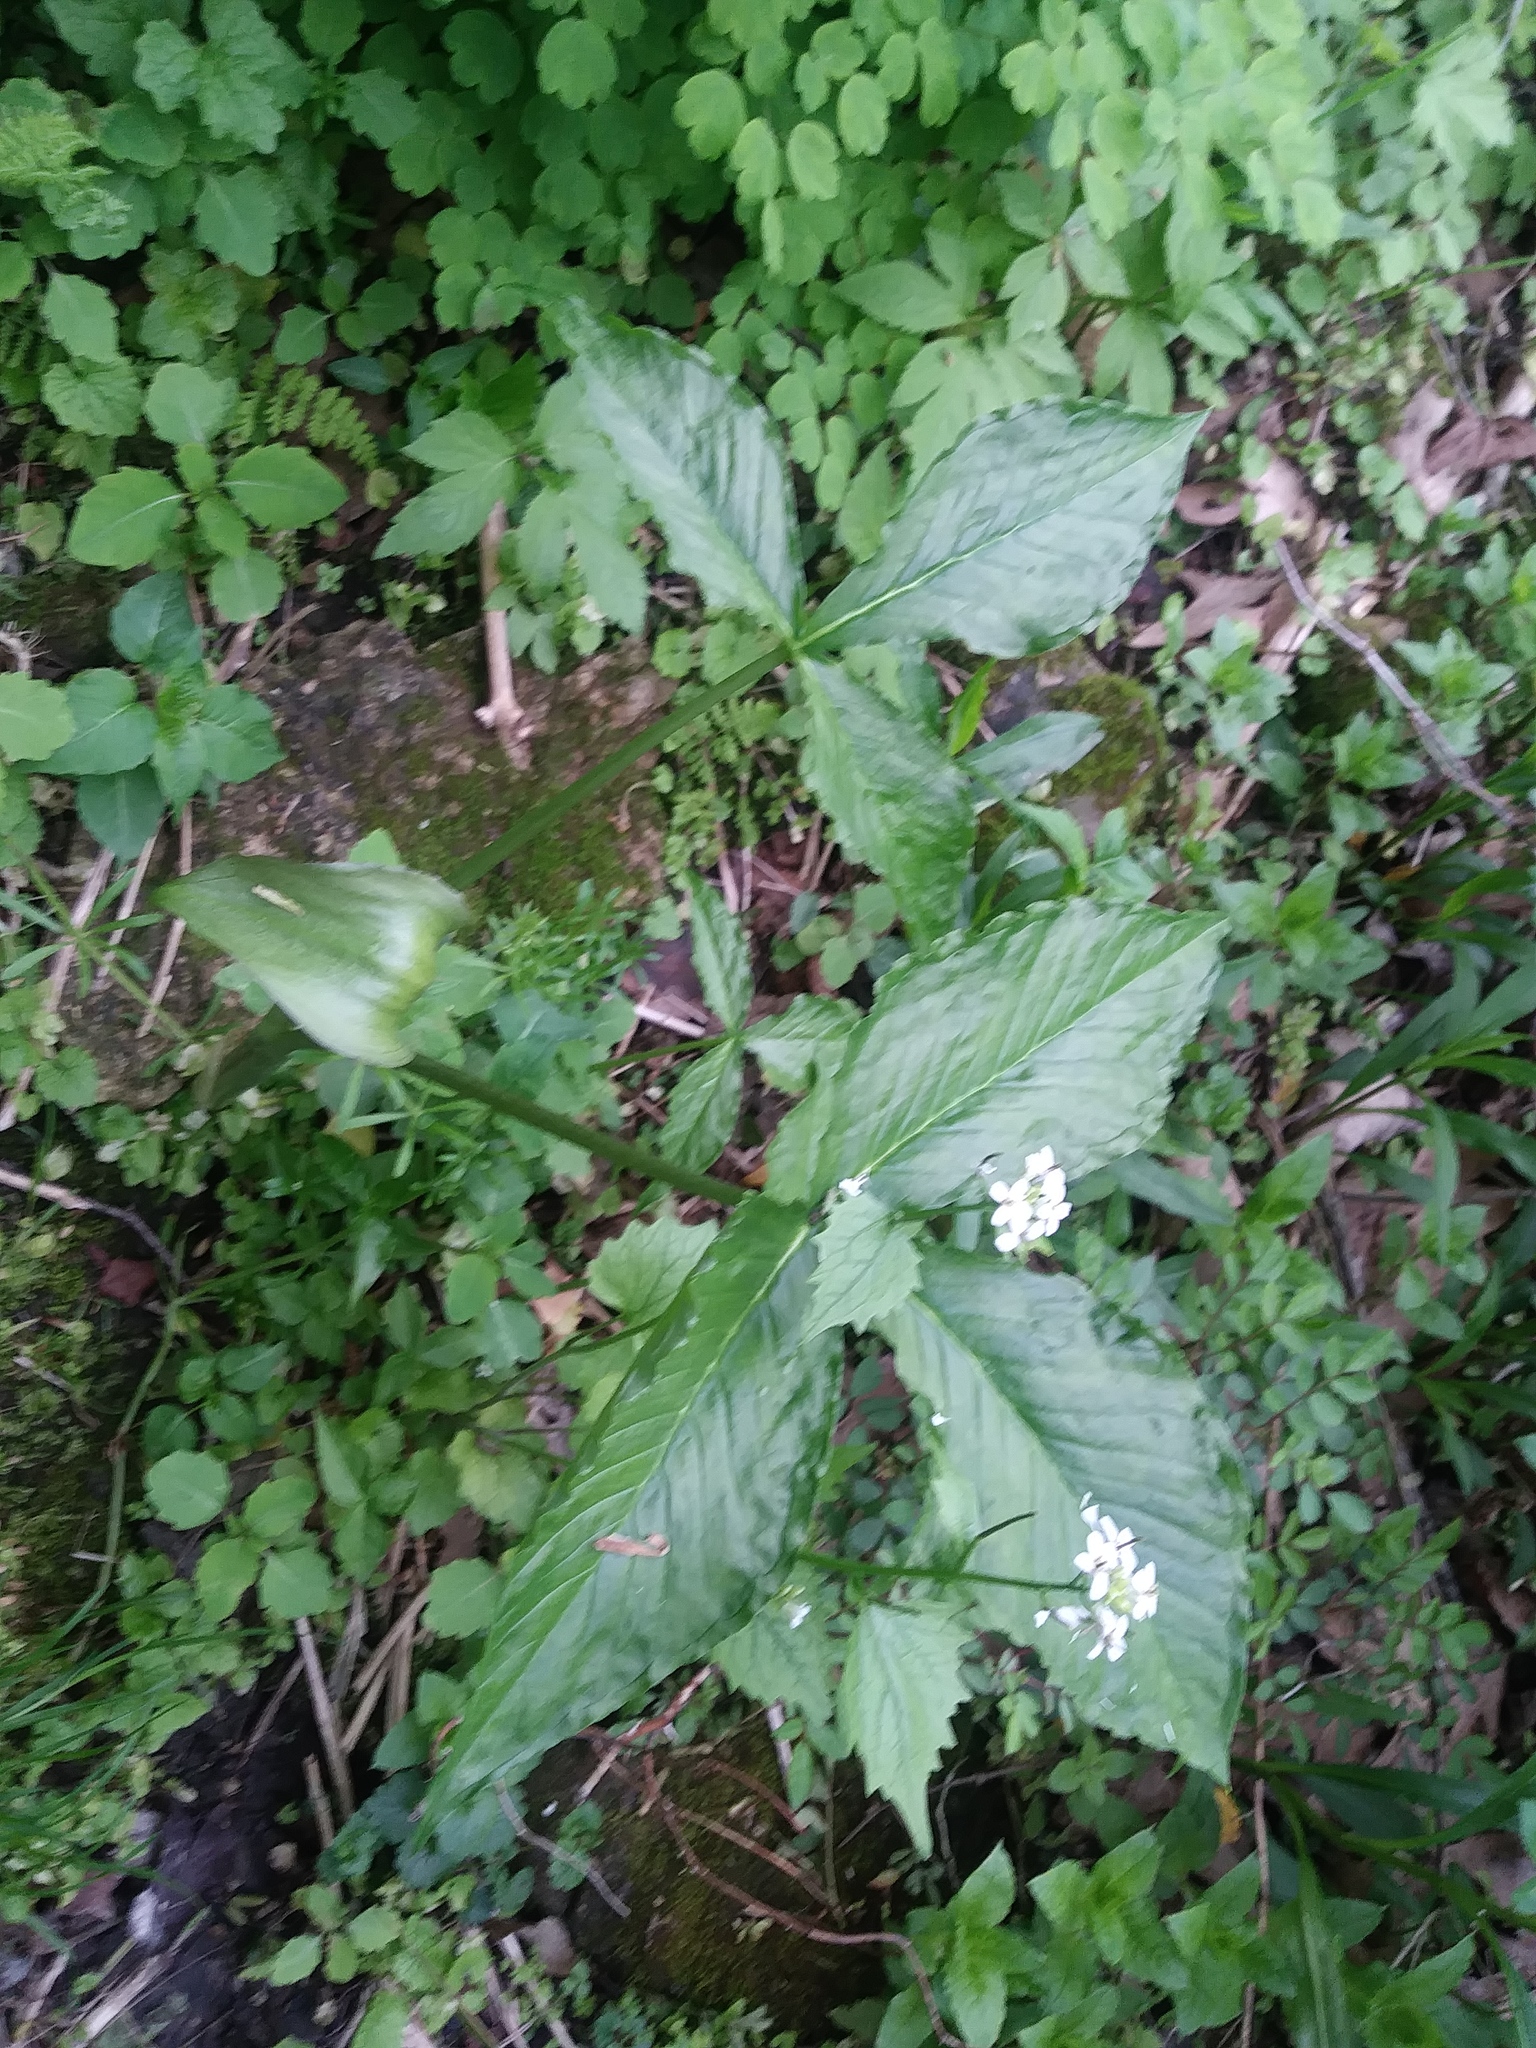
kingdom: Plantae
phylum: Tracheophyta
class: Liliopsida
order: Alismatales
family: Araceae
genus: Arisaema
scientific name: Arisaema triphyllum
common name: Jack-in-the-pulpit
